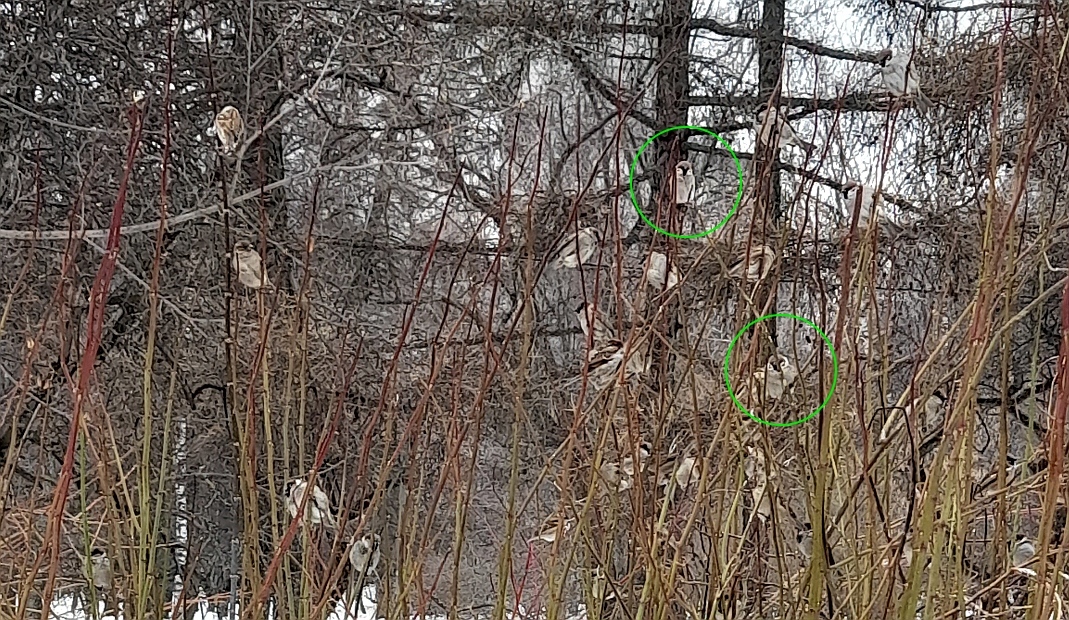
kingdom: Animalia
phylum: Chordata
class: Aves
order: Passeriformes
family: Passeridae
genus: Passer
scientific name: Passer montanus
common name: Eurasian tree sparrow
